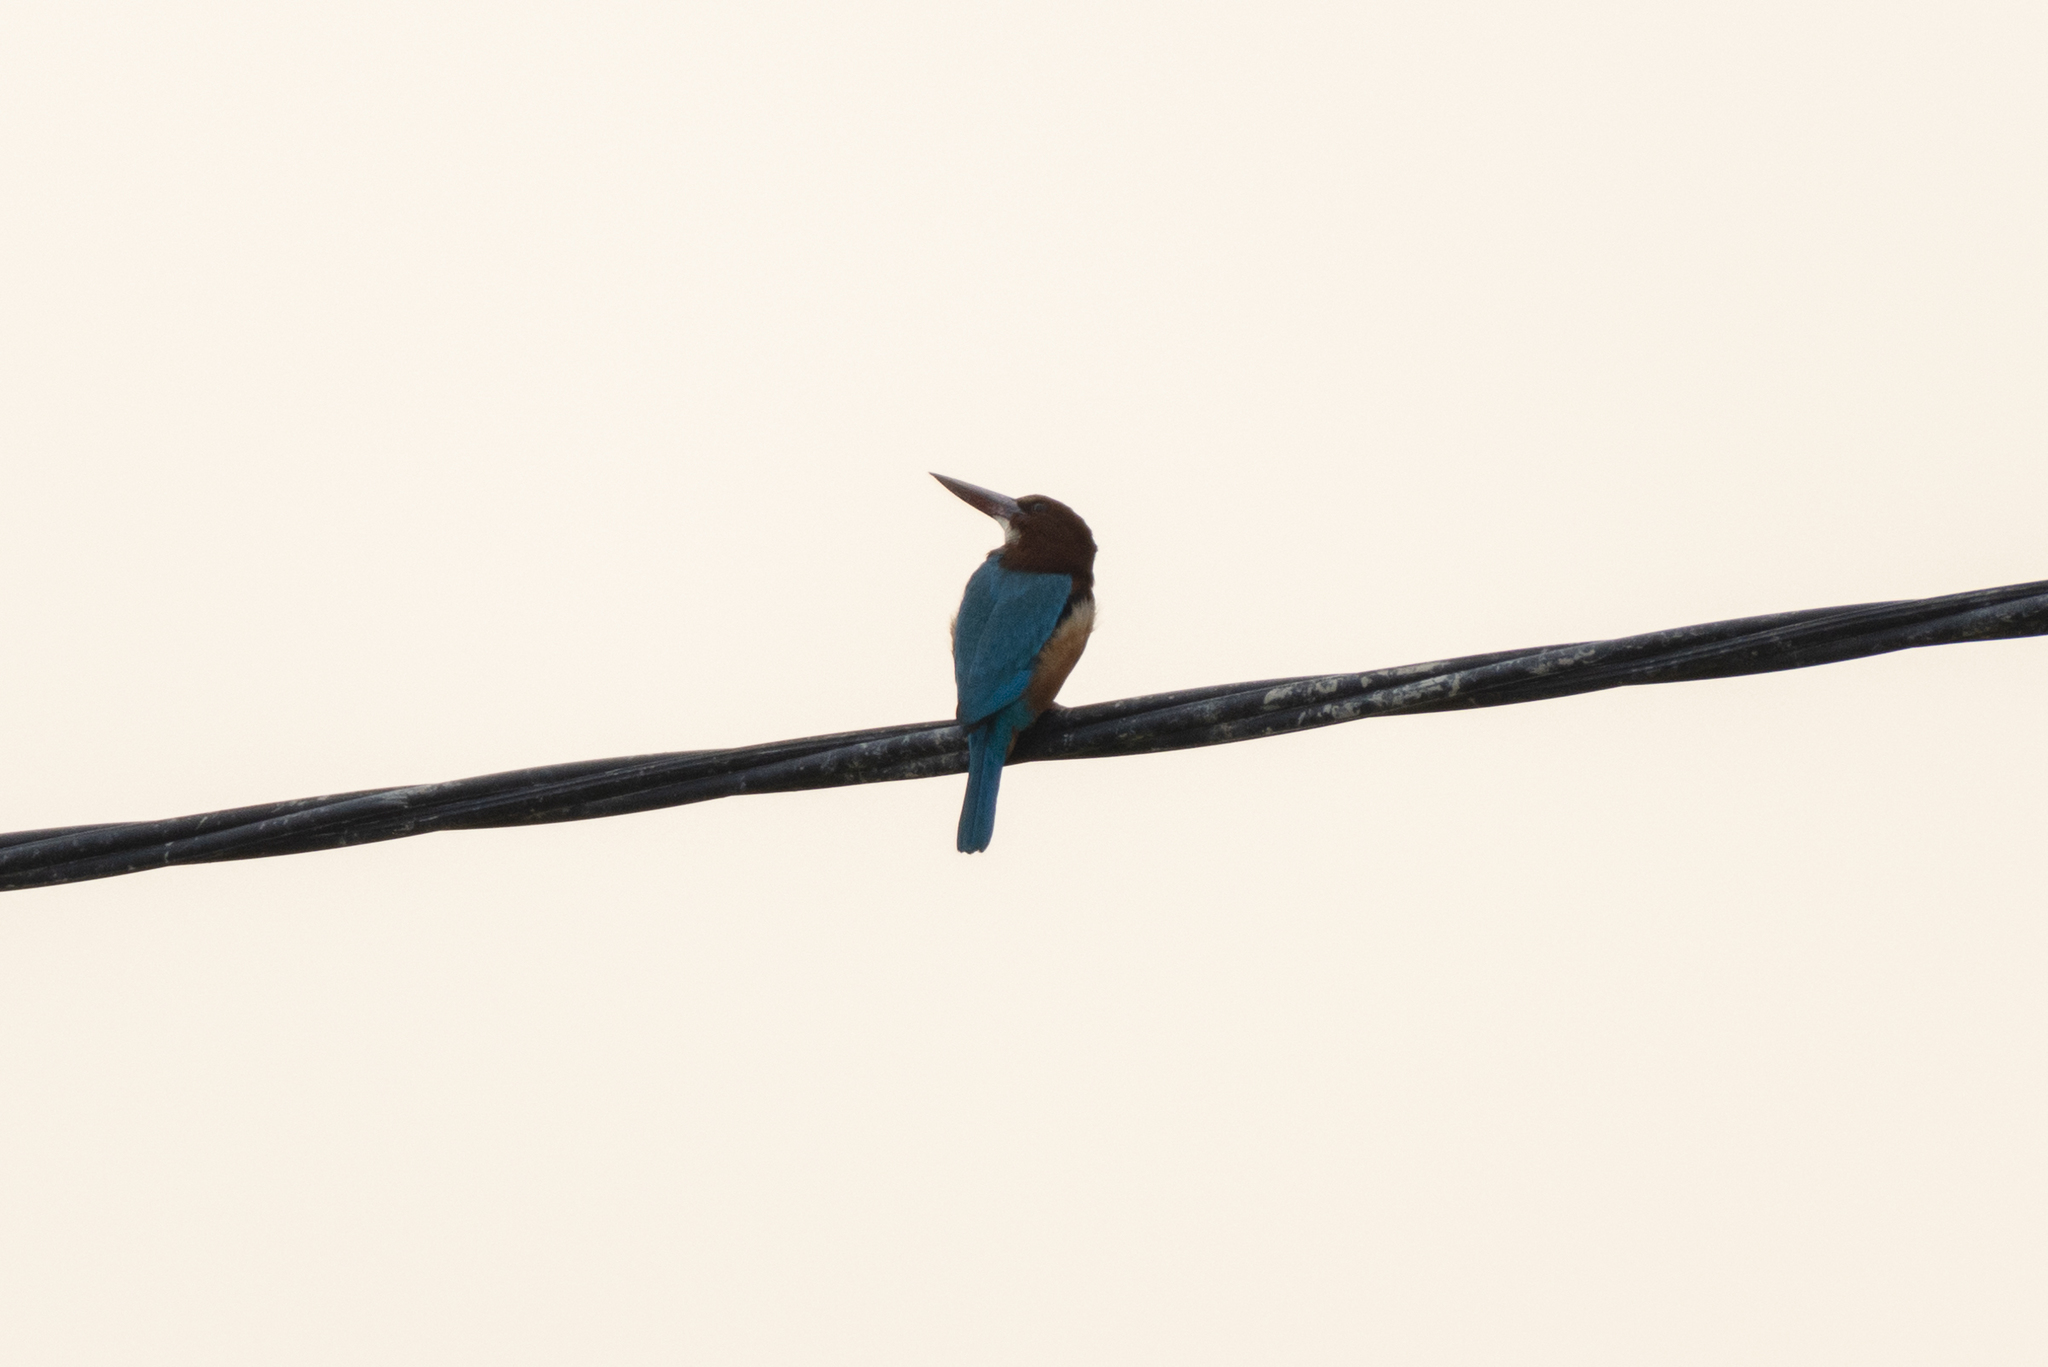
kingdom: Animalia
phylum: Chordata
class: Aves
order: Coraciiformes
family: Alcedinidae
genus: Halcyon
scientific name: Halcyon smyrnensis
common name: White-throated kingfisher
